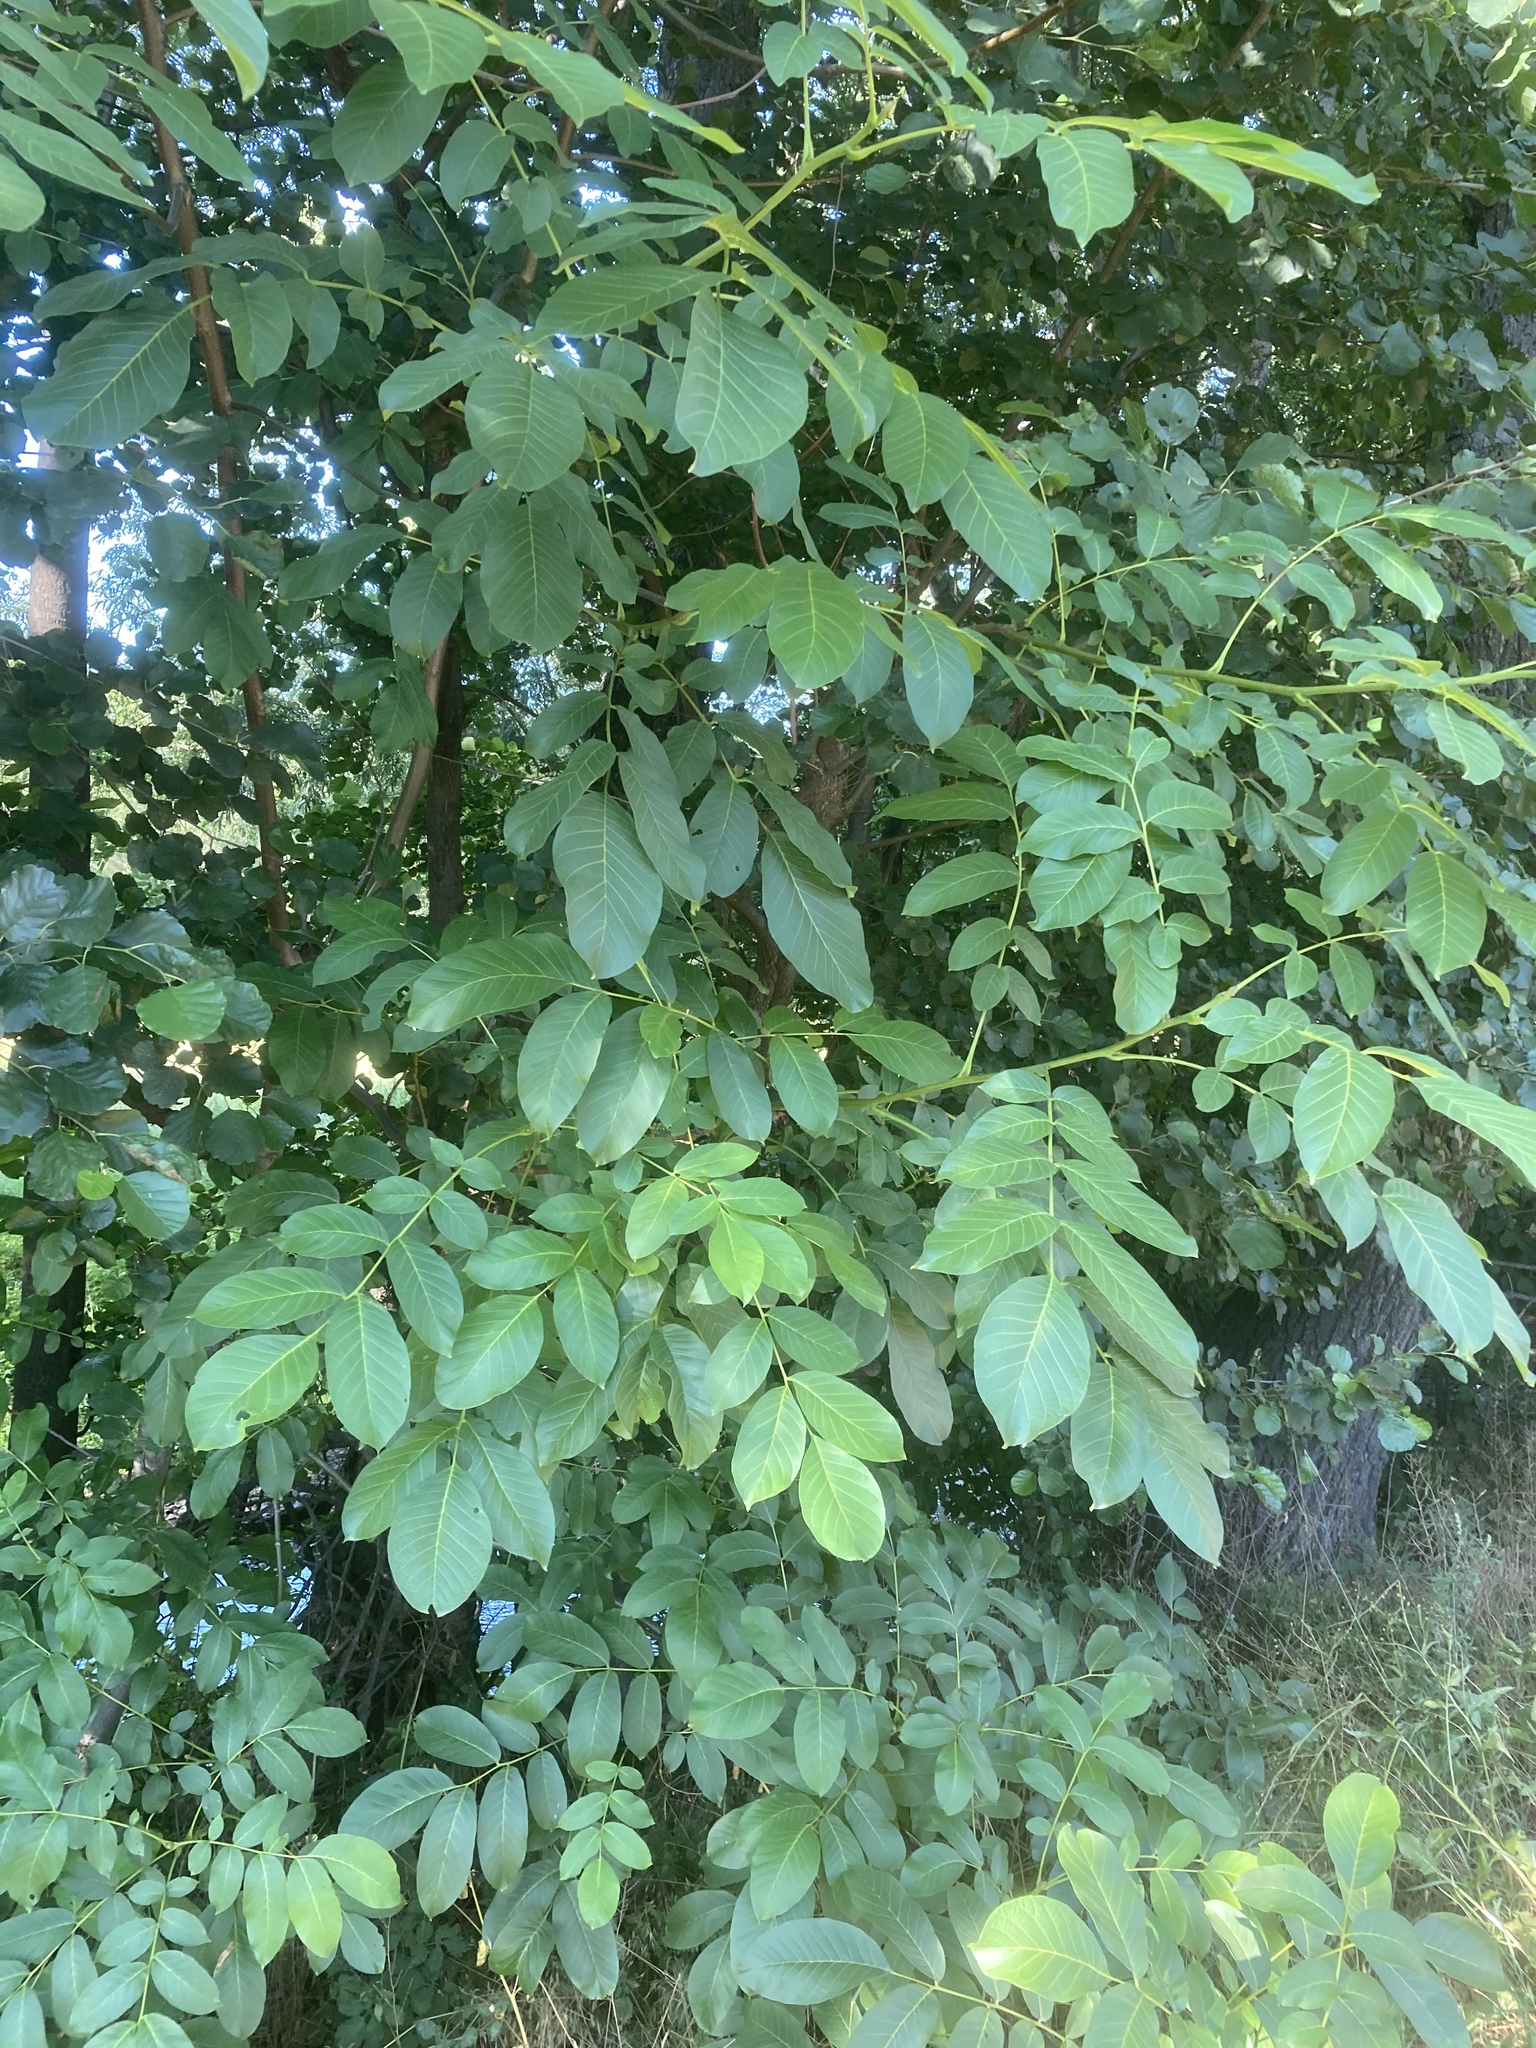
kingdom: Plantae
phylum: Tracheophyta
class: Magnoliopsida
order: Fagales
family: Juglandaceae
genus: Juglans
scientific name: Juglans regia
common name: Walnut
